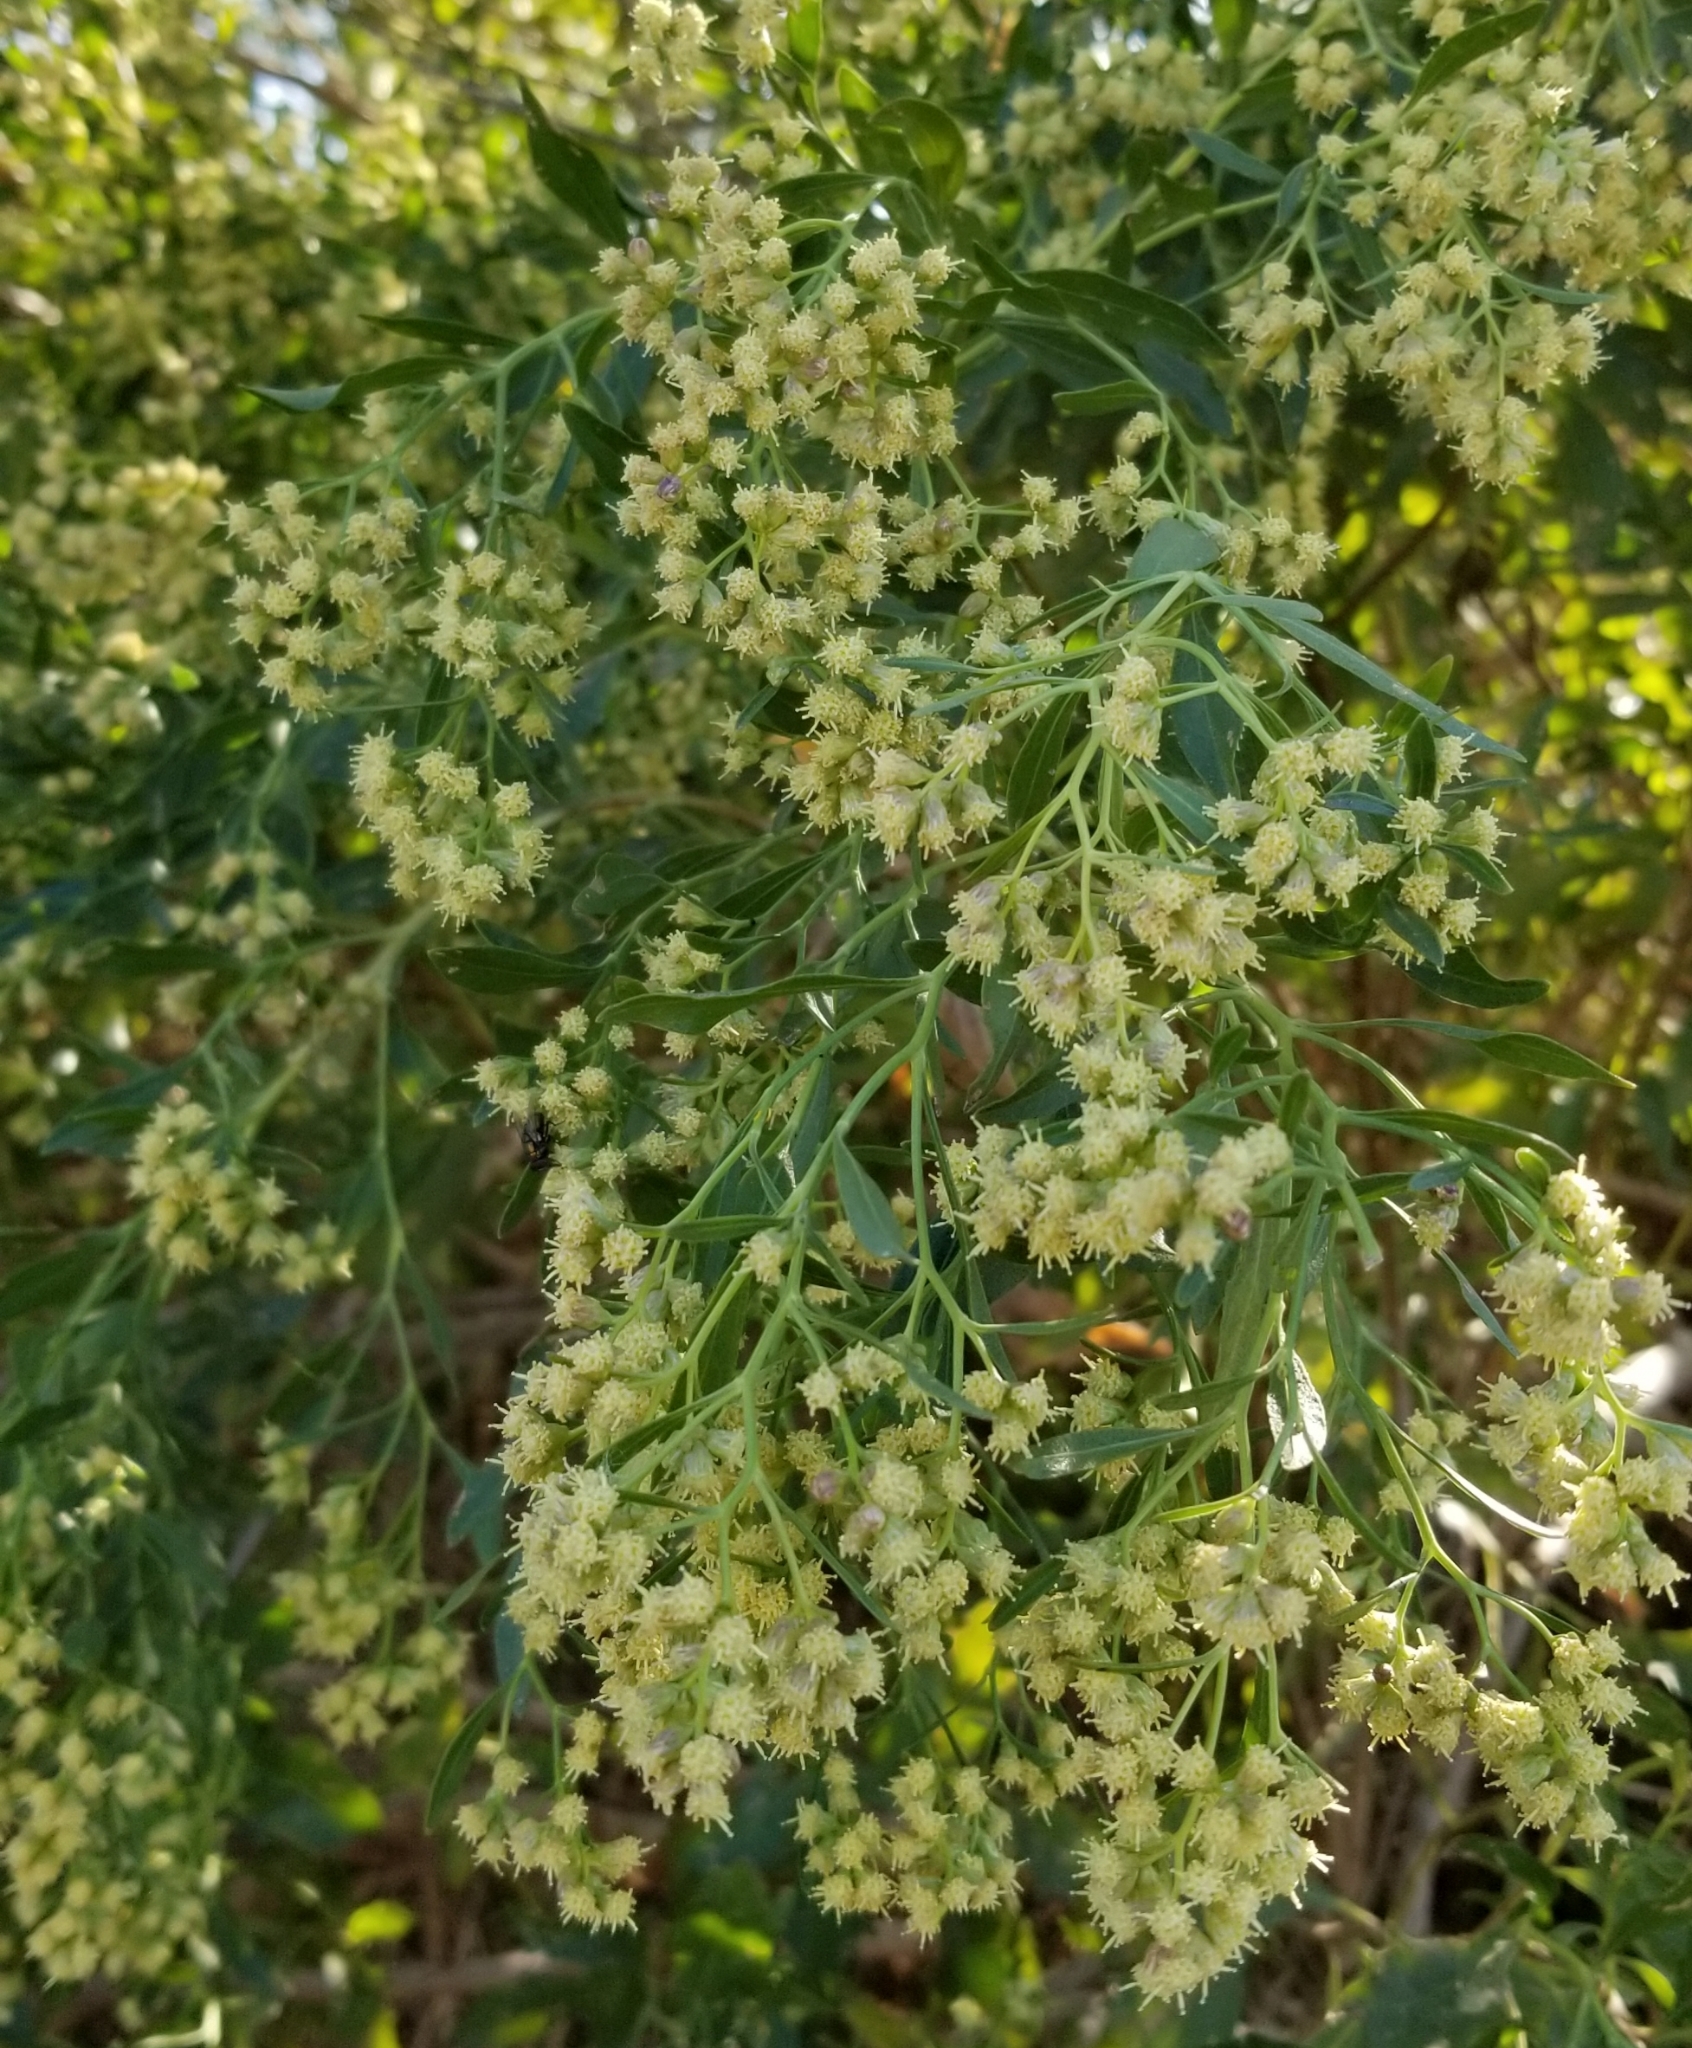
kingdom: Plantae
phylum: Tracheophyta
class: Magnoliopsida
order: Asterales
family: Asteraceae
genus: Baccharis
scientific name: Baccharis halimifolia
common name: Eastern baccharis
